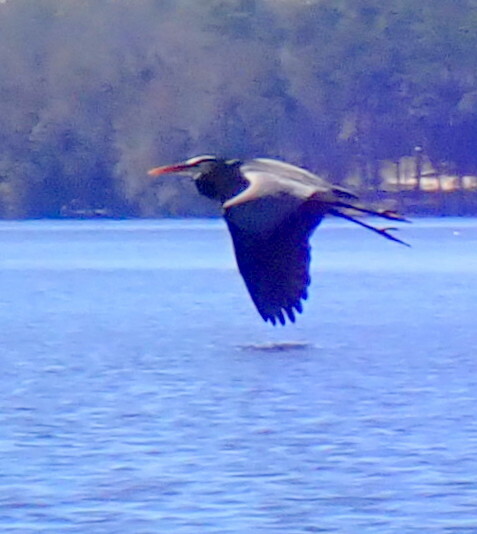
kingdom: Animalia
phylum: Chordata
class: Aves
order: Pelecaniformes
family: Ardeidae
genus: Ardea
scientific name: Ardea herodias
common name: Great blue heron
